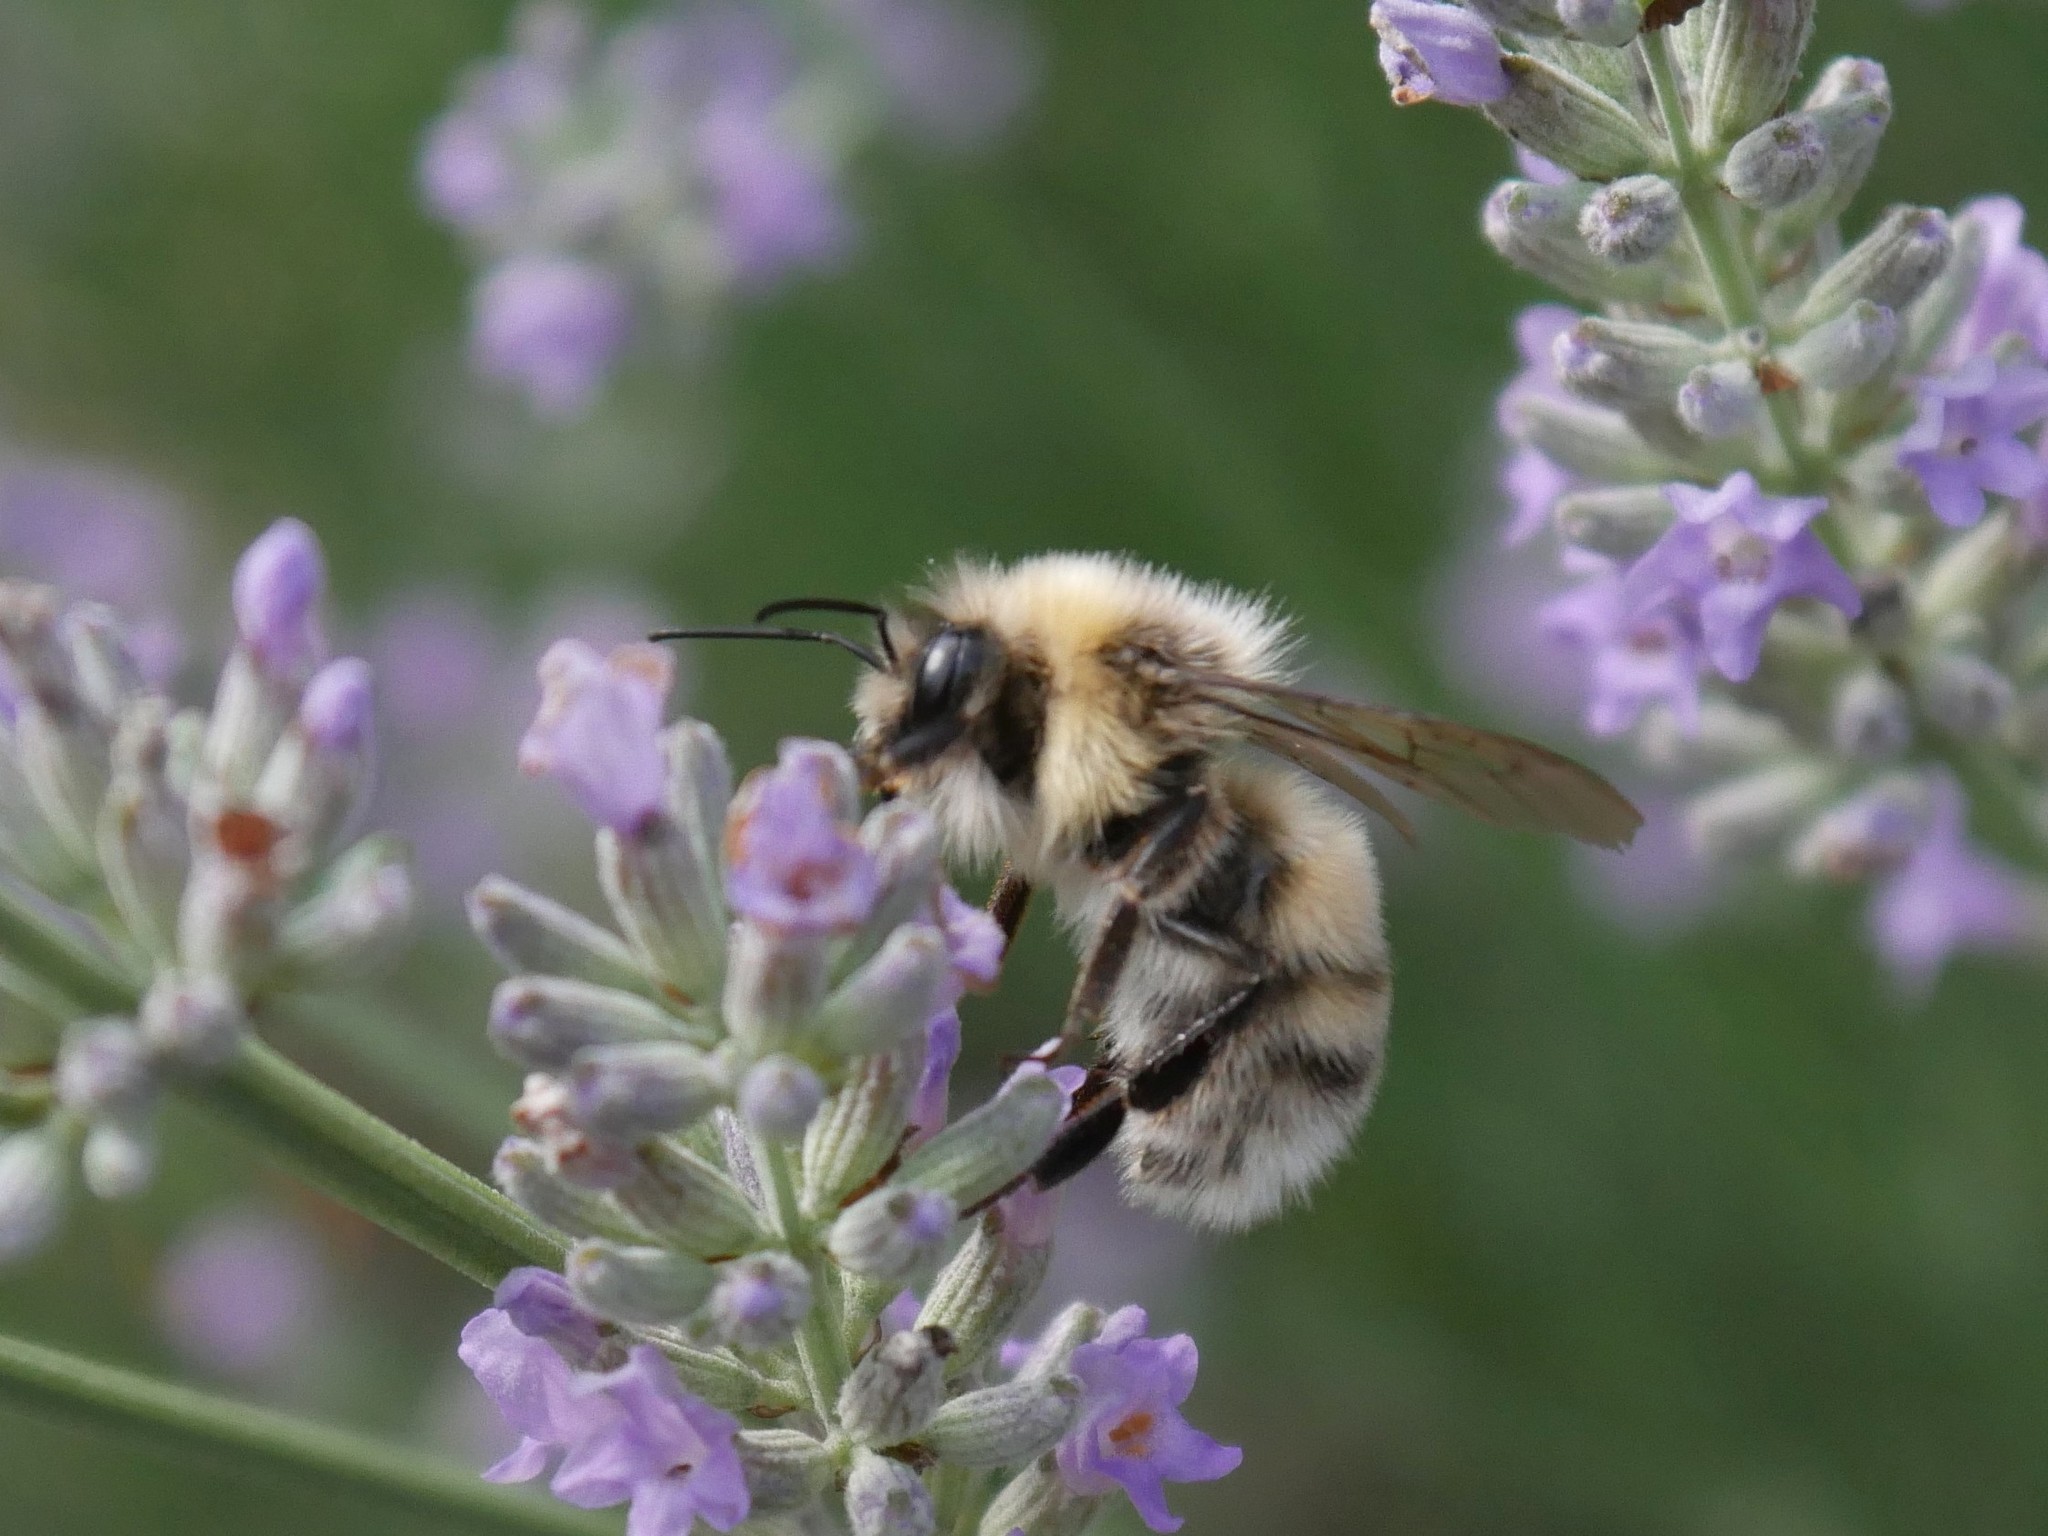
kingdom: Animalia
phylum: Arthropoda
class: Insecta
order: Hymenoptera
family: Apidae
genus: Bombus
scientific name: Bombus lucorum
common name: White-tailed bumblebee
